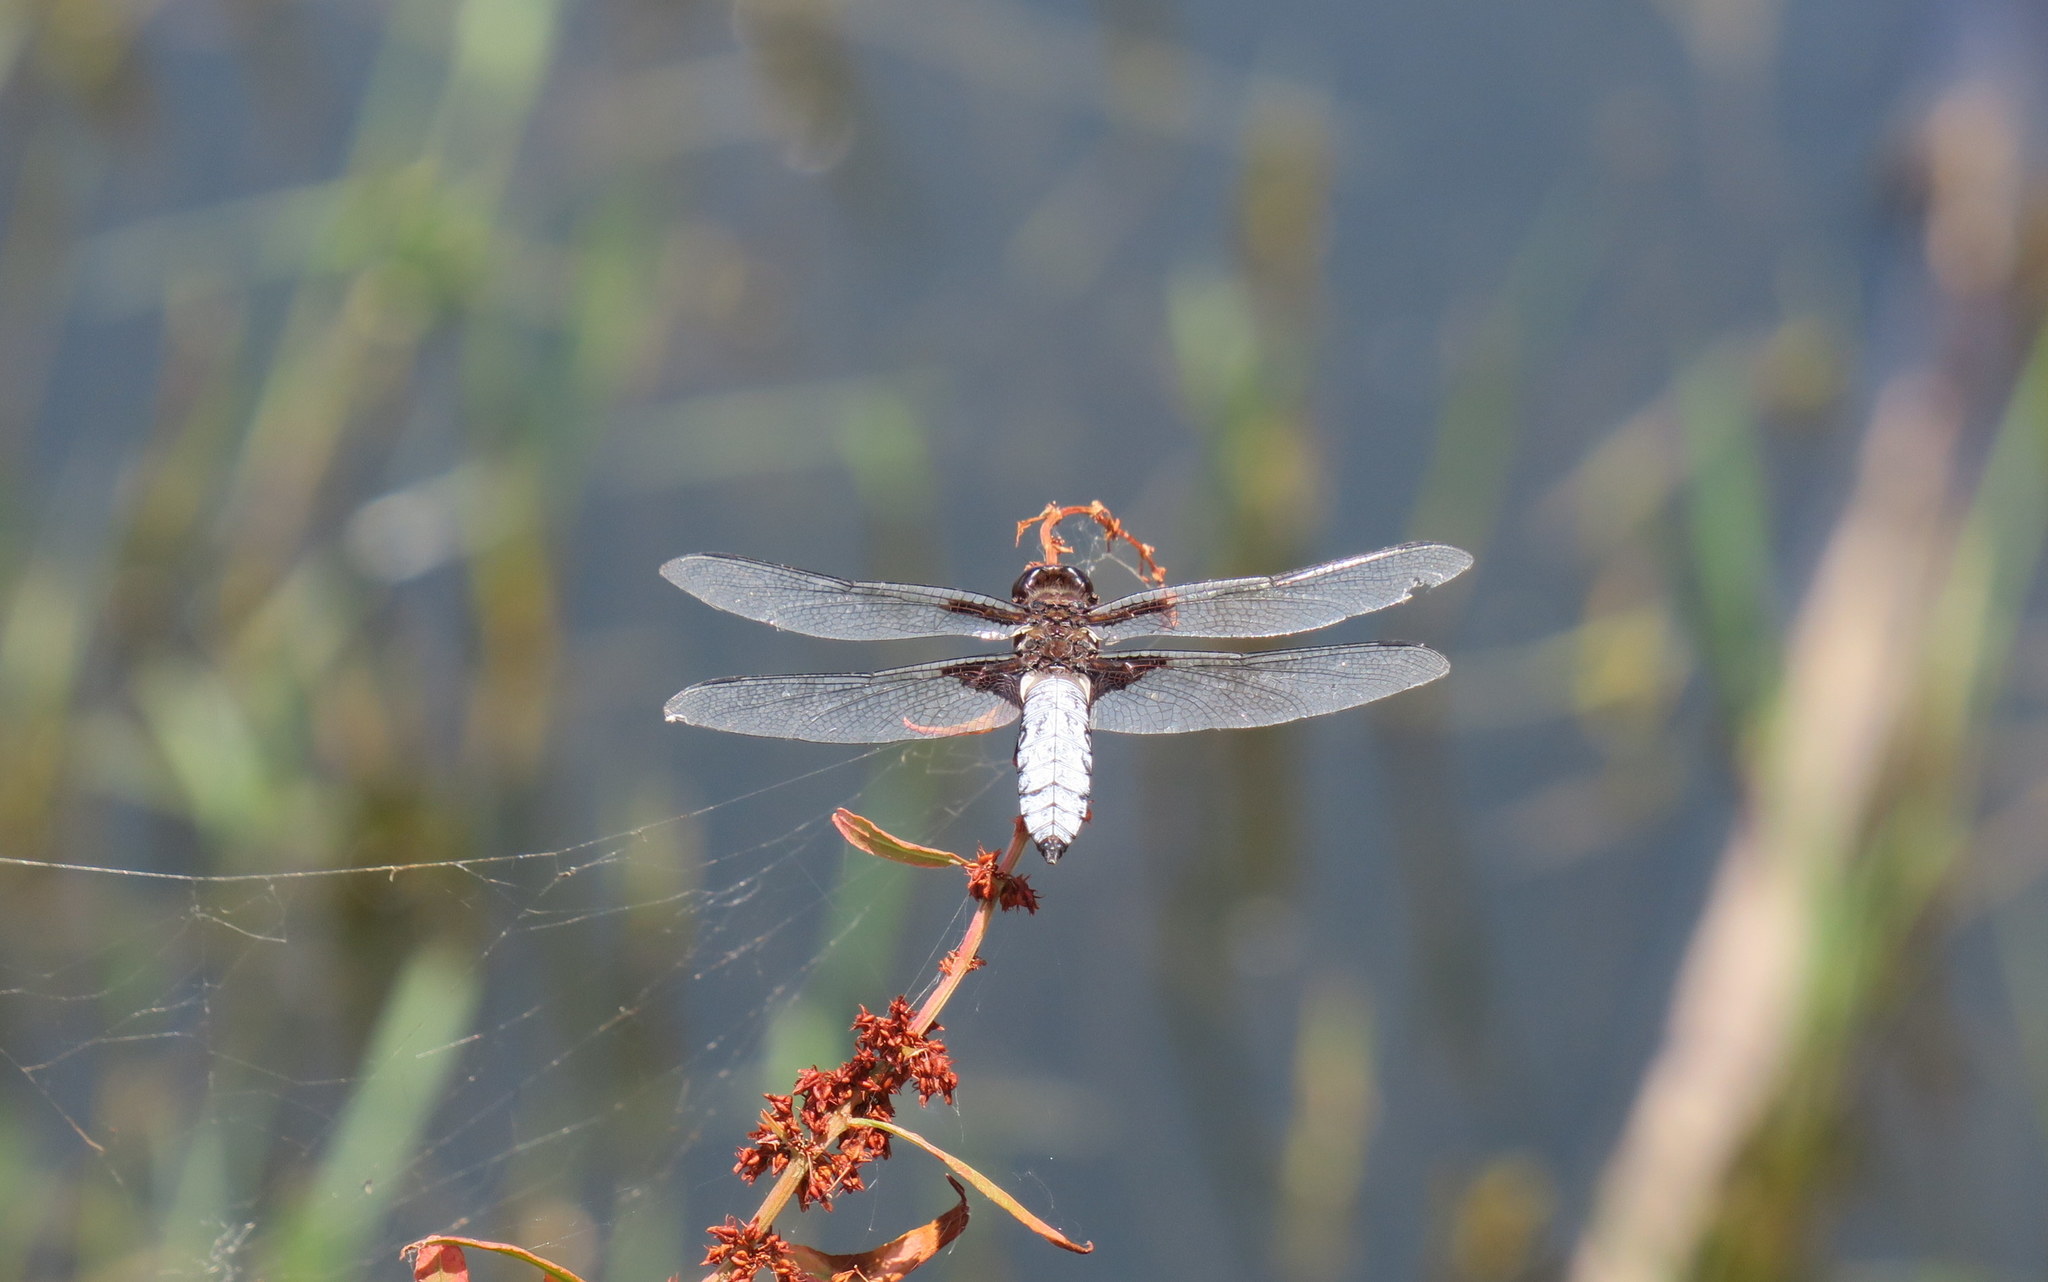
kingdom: Animalia
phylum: Arthropoda
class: Insecta
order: Odonata
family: Libellulidae
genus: Libellula
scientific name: Libellula depressa
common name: Broad-bodied chaser
